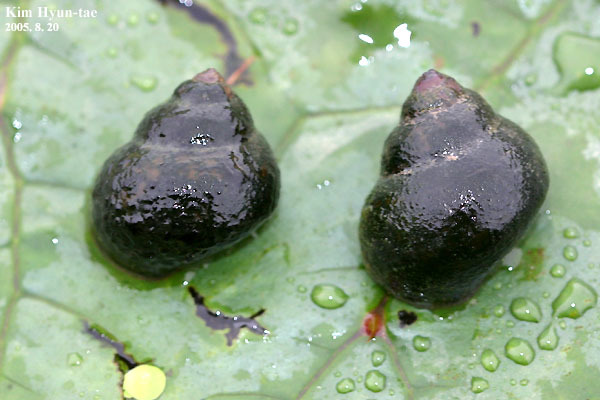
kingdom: Animalia
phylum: Mollusca
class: Gastropoda
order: Architaenioglossa
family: Viviparidae
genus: Cipangopaludina
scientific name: Cipangopaludina chinensis
